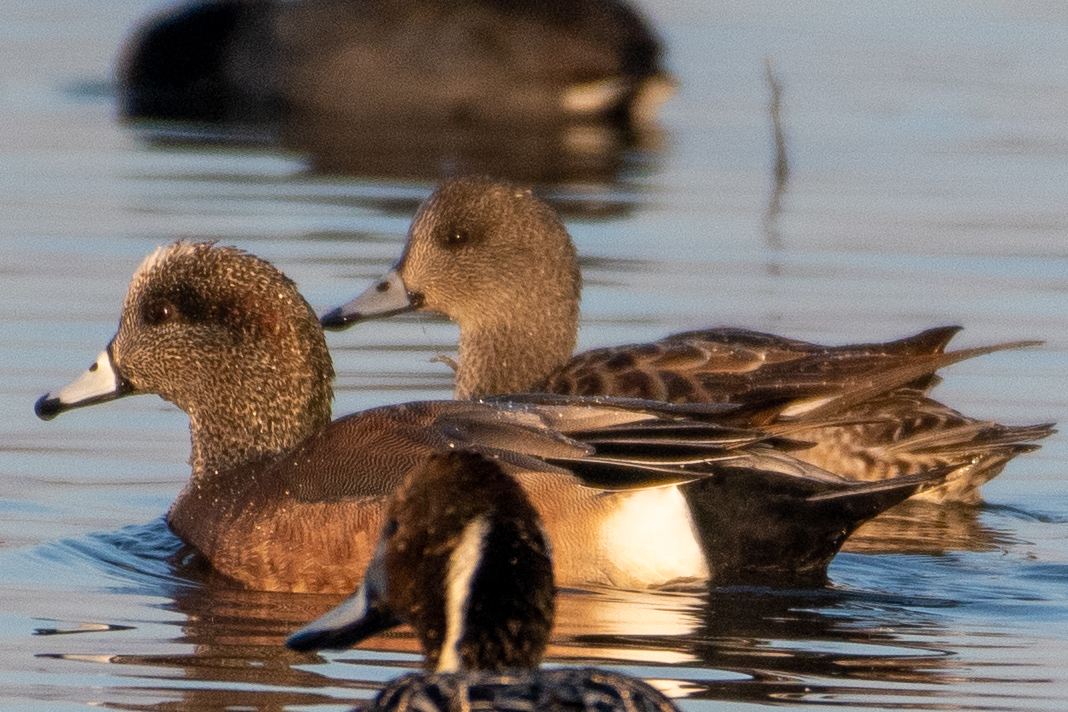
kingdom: Animalia
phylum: Chordata
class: Aves
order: Anseriformes
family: Anatidae
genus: Mareca
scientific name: Mareca americana
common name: American wigeon
